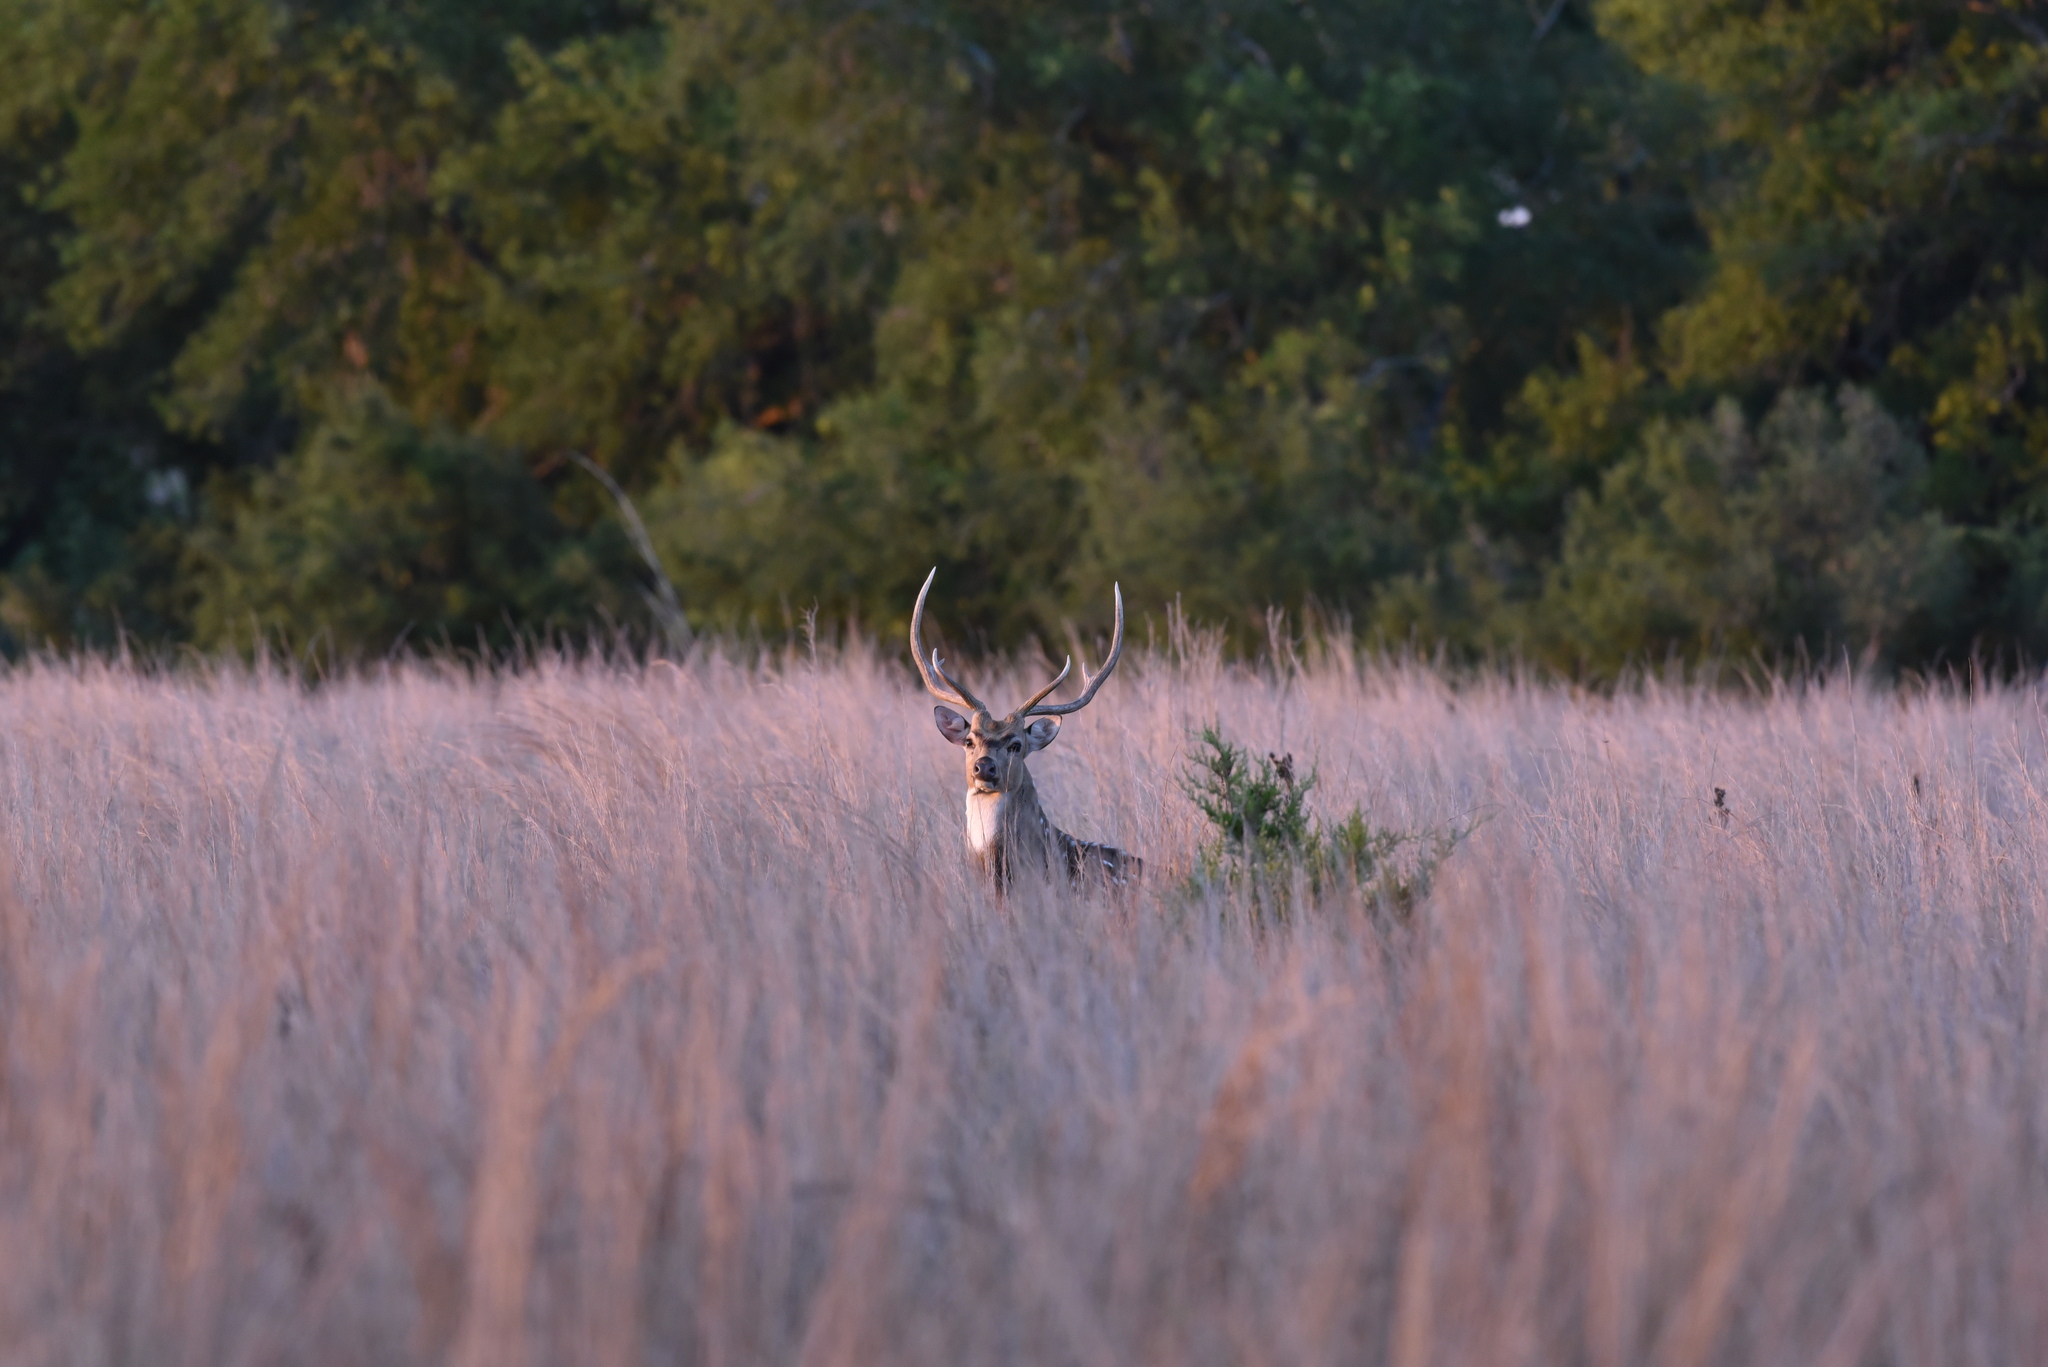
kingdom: Animalia
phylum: Chordata
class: Mammalia
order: Artiodactyla
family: Cervidae
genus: Axis
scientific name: Axis axis
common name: Chital
